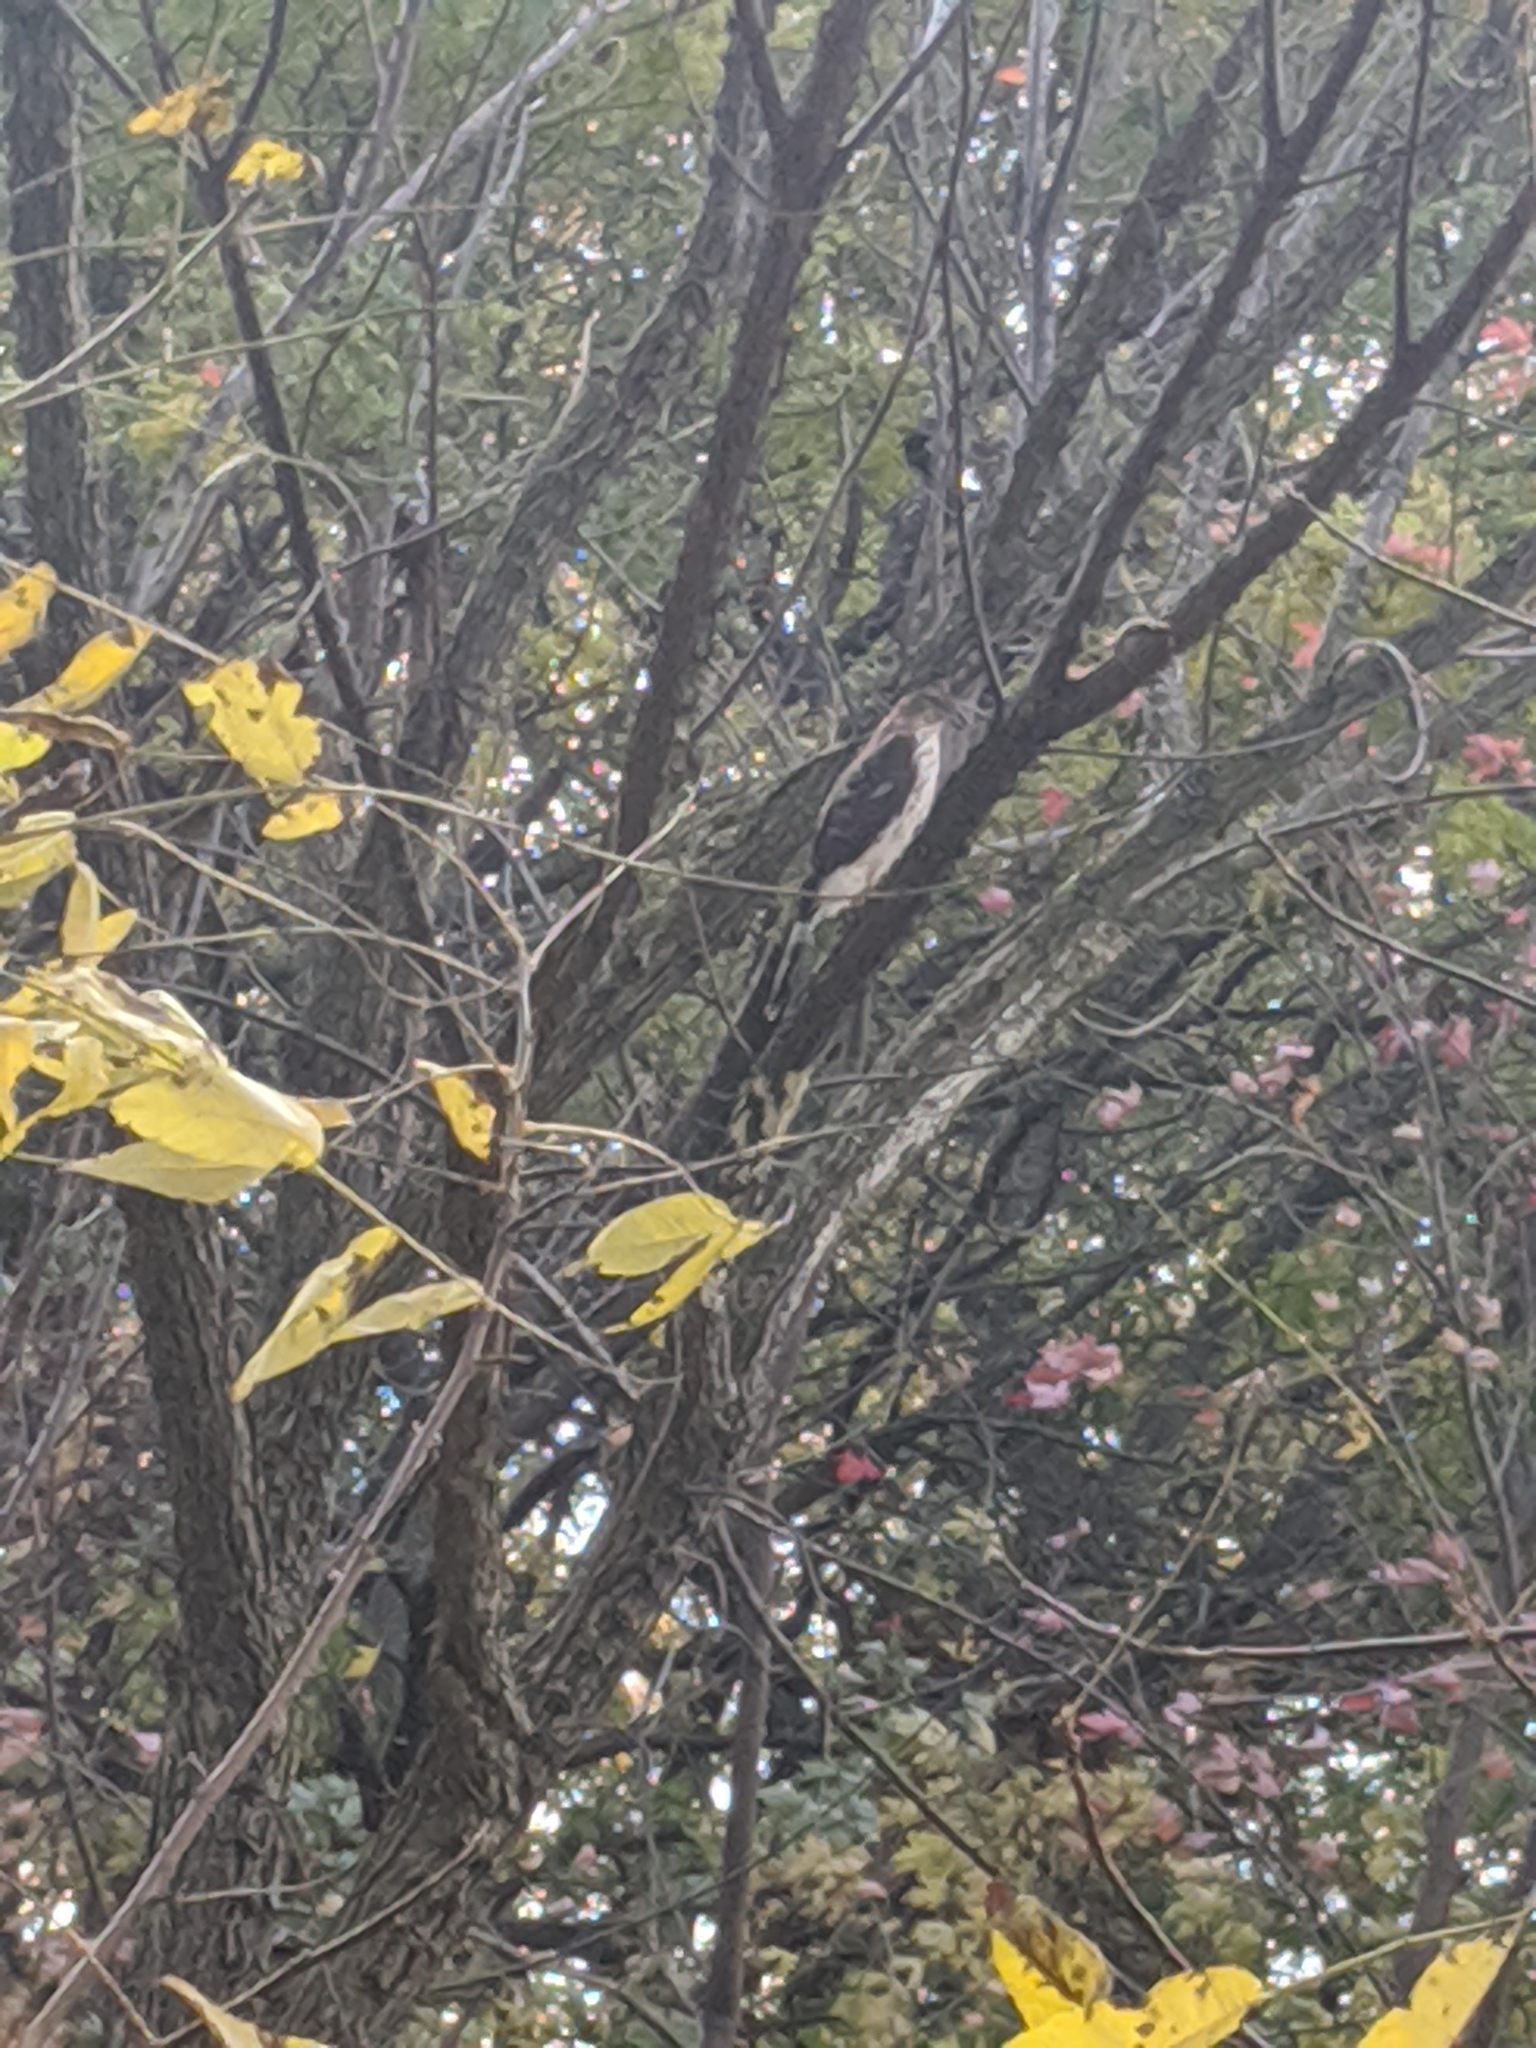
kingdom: Animalia
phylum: Chordata
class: Aves
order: Accipitriformes
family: Accipitridae
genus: Accipiter
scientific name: Accipiter cooperii
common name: Cooper's hawk
